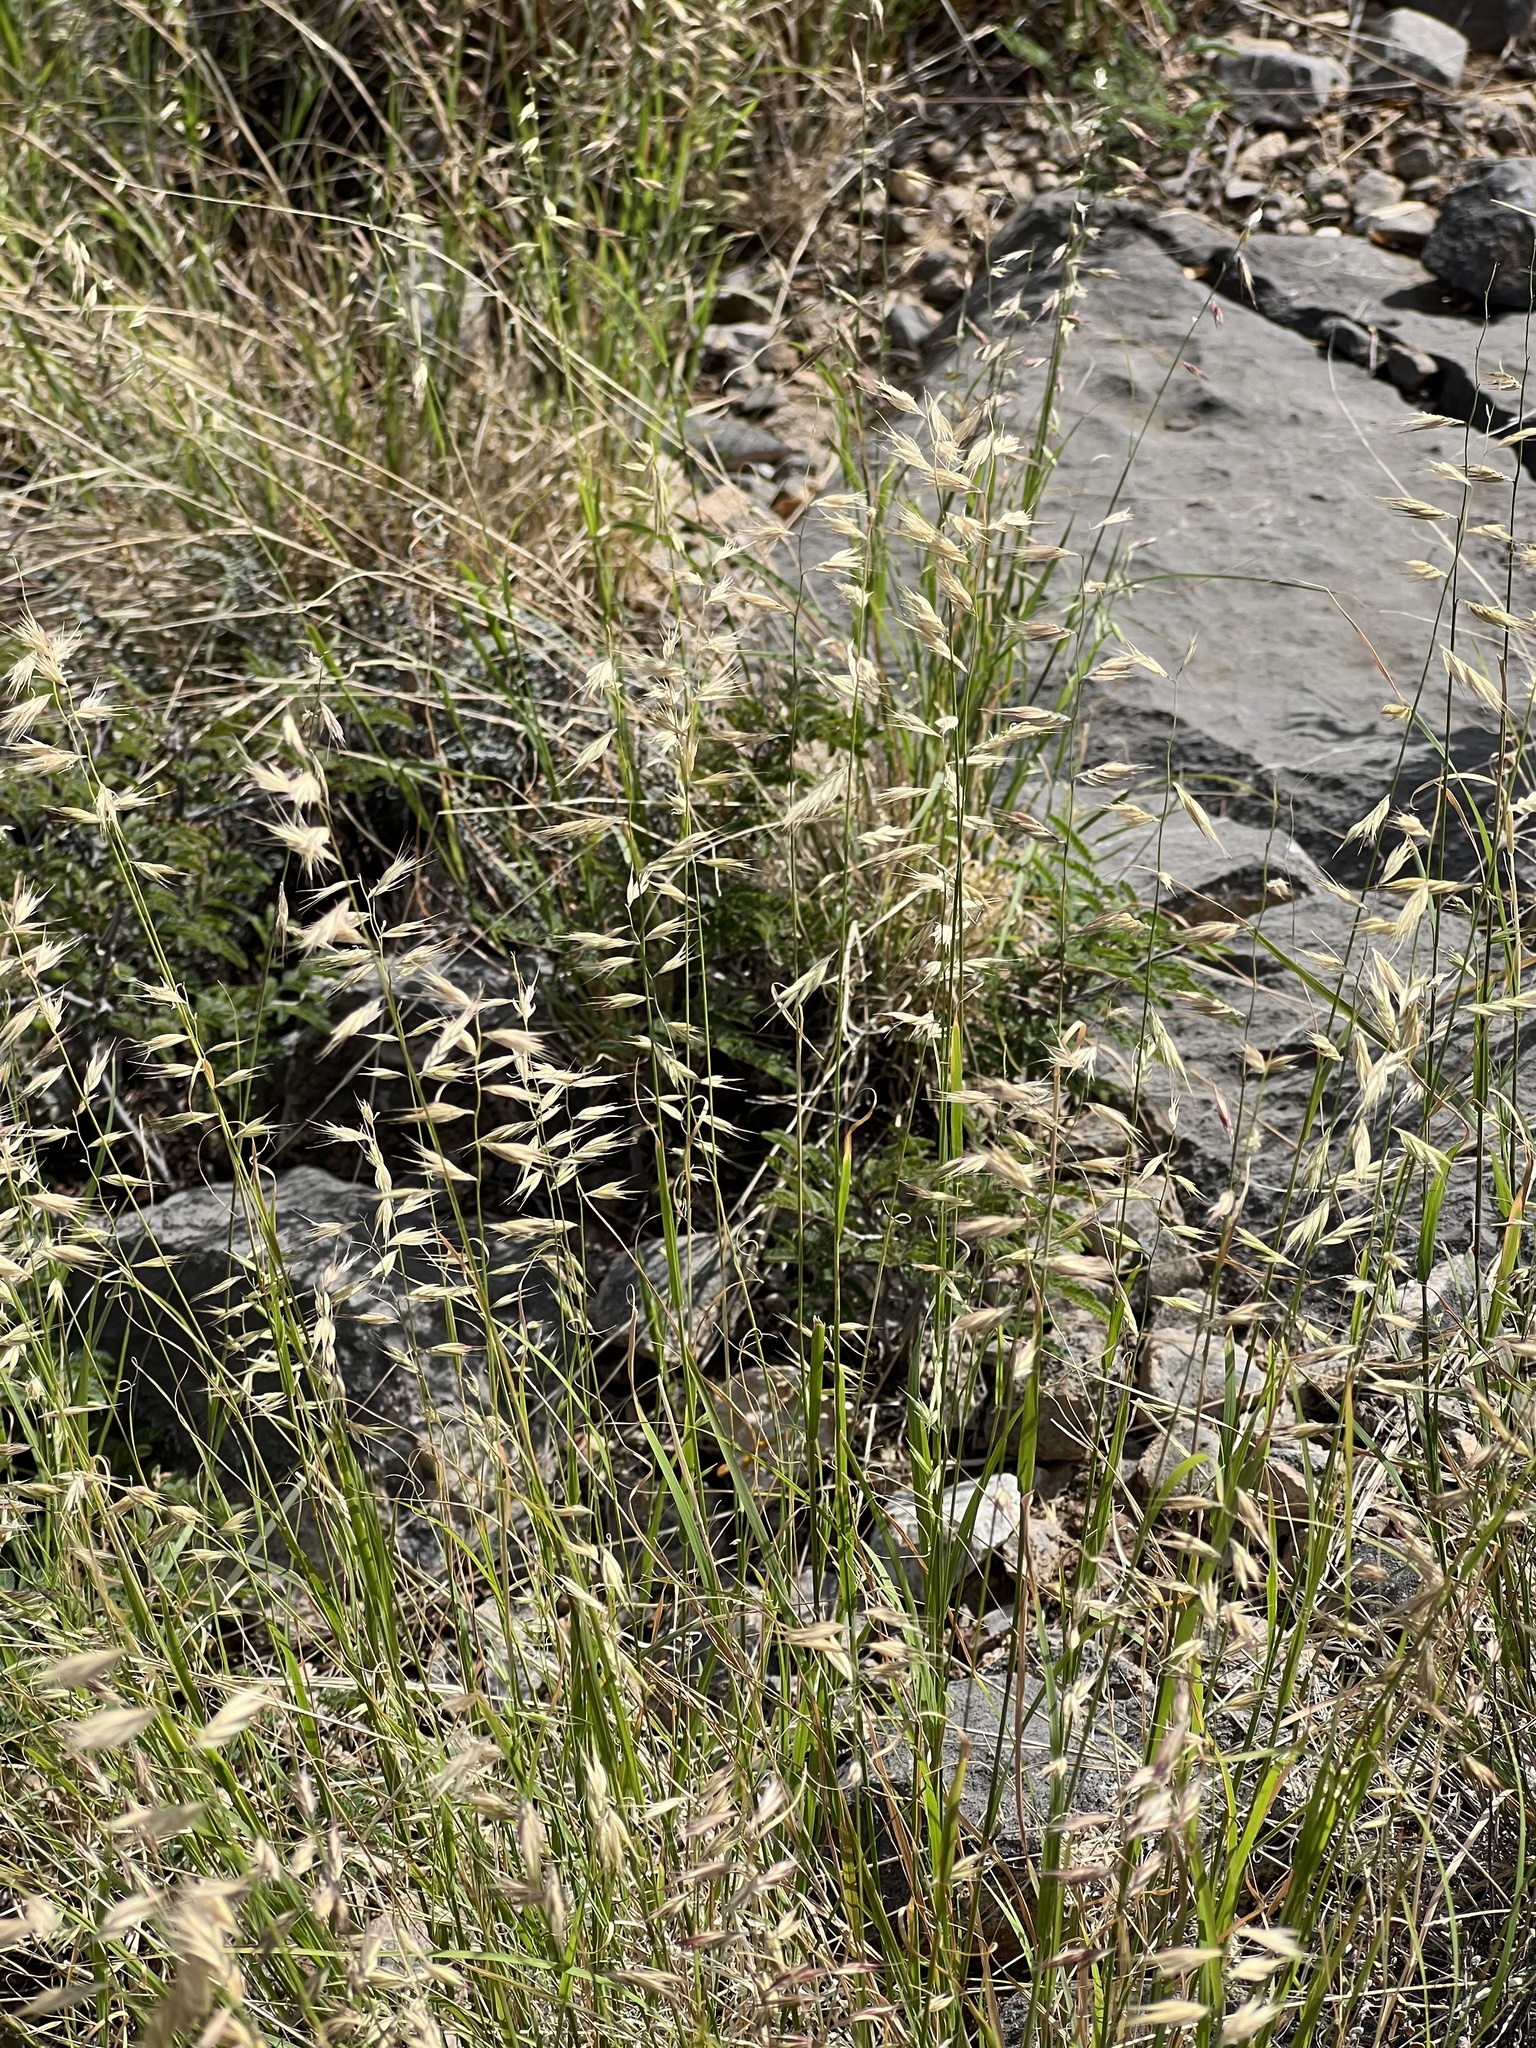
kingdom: Plantae
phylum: Tracheophyta
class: Liliopsida
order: Poales
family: Poaceae
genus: Bouteloua
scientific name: Bouteloua repens
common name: Slender grama
